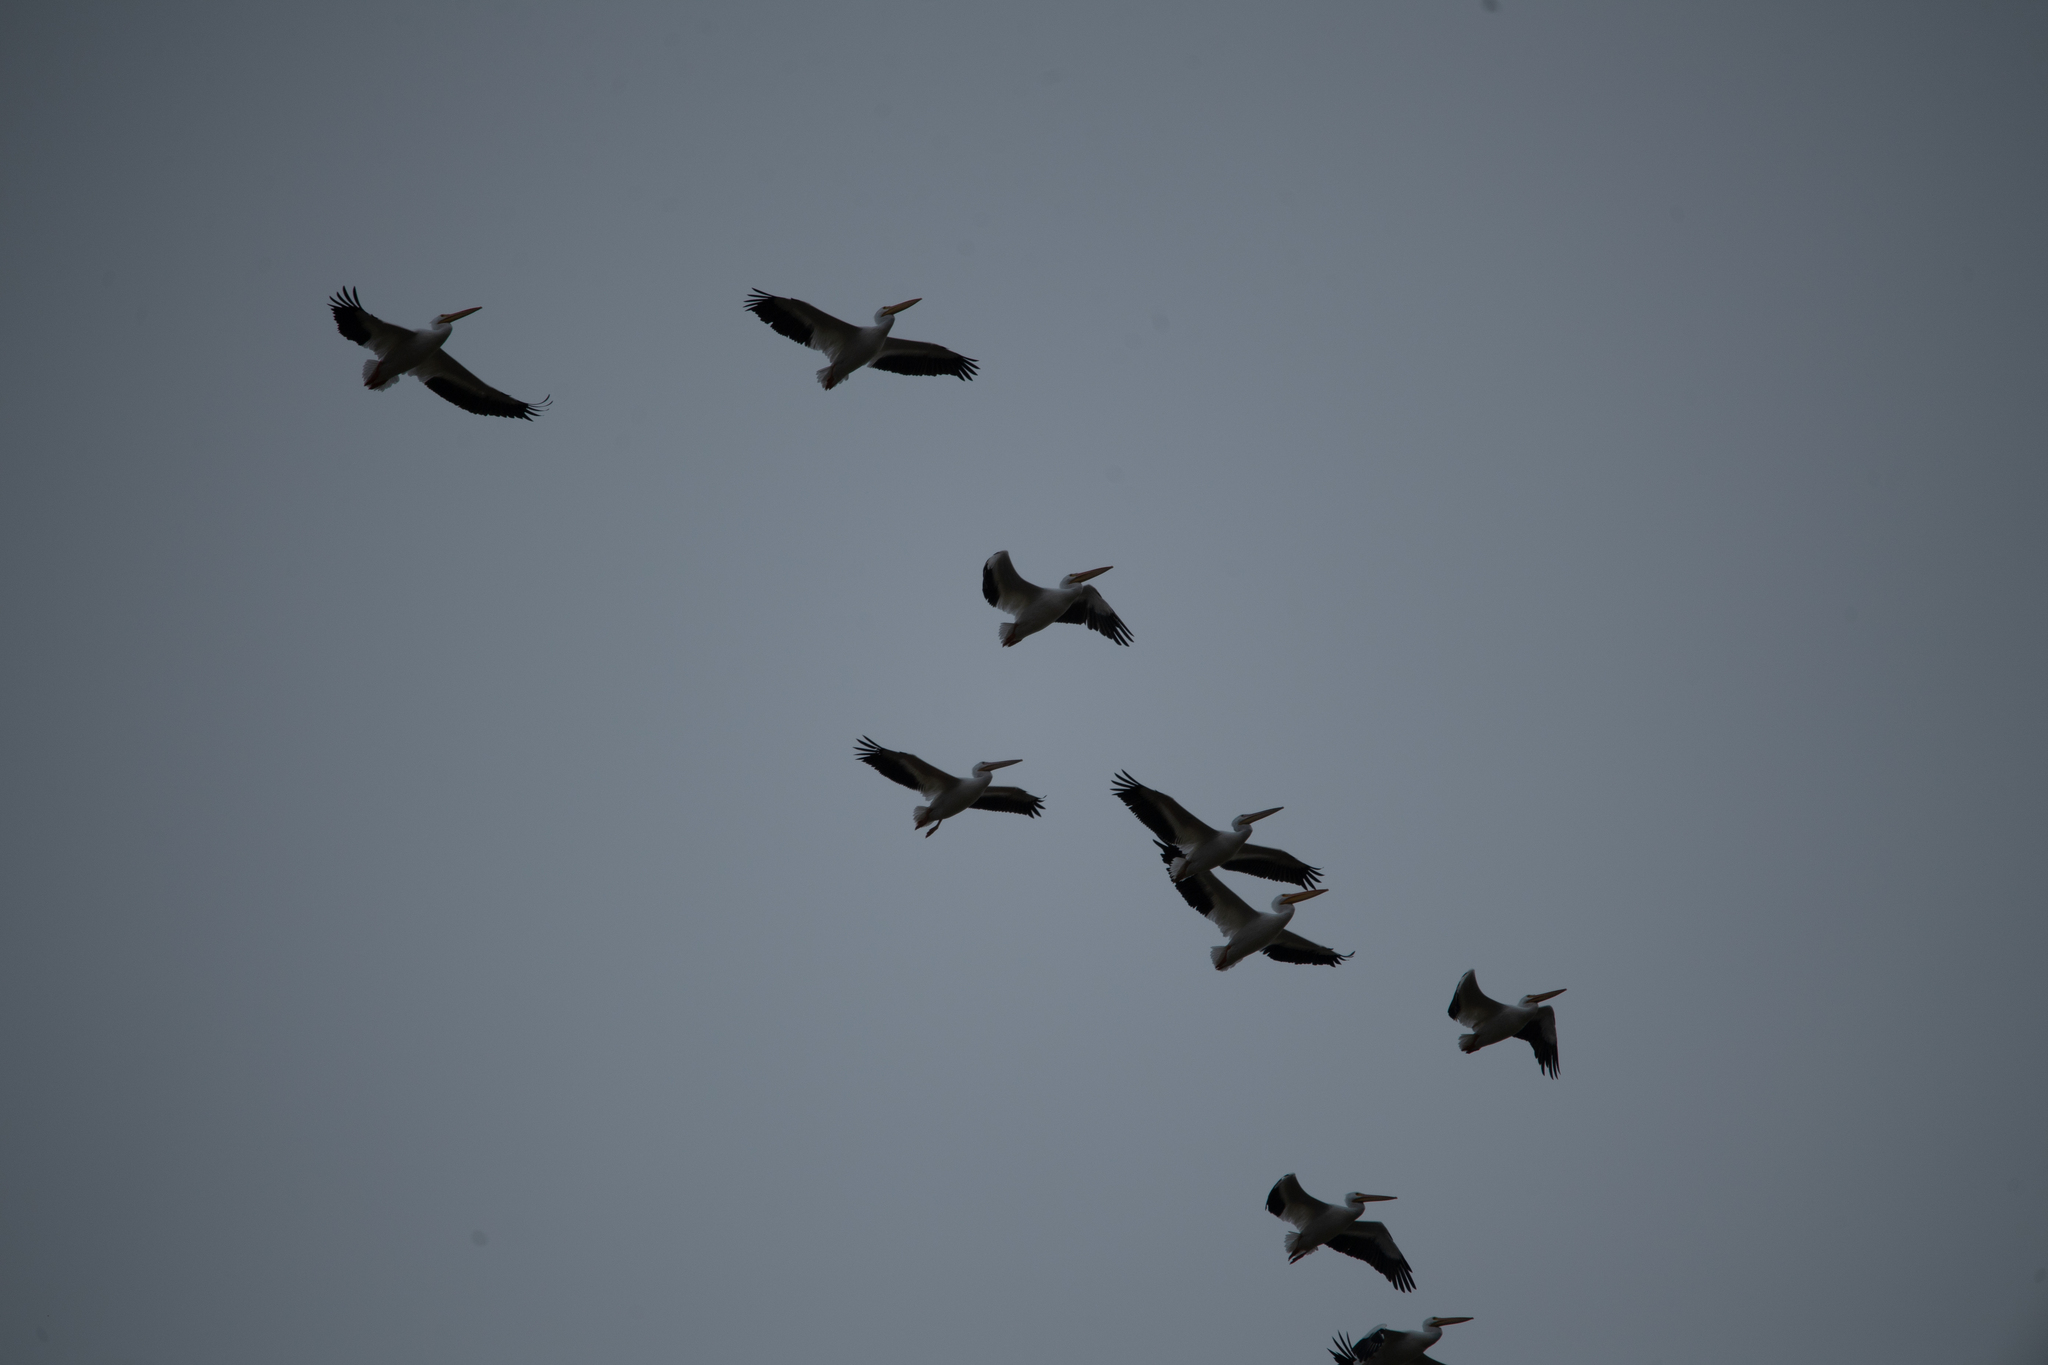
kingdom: Animalia
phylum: Chordata
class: Aves
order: Pelecaniformes
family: Pelecanidae
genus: Pelecanus
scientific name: Pelecanus erythrorhynchos
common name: American white pelican
